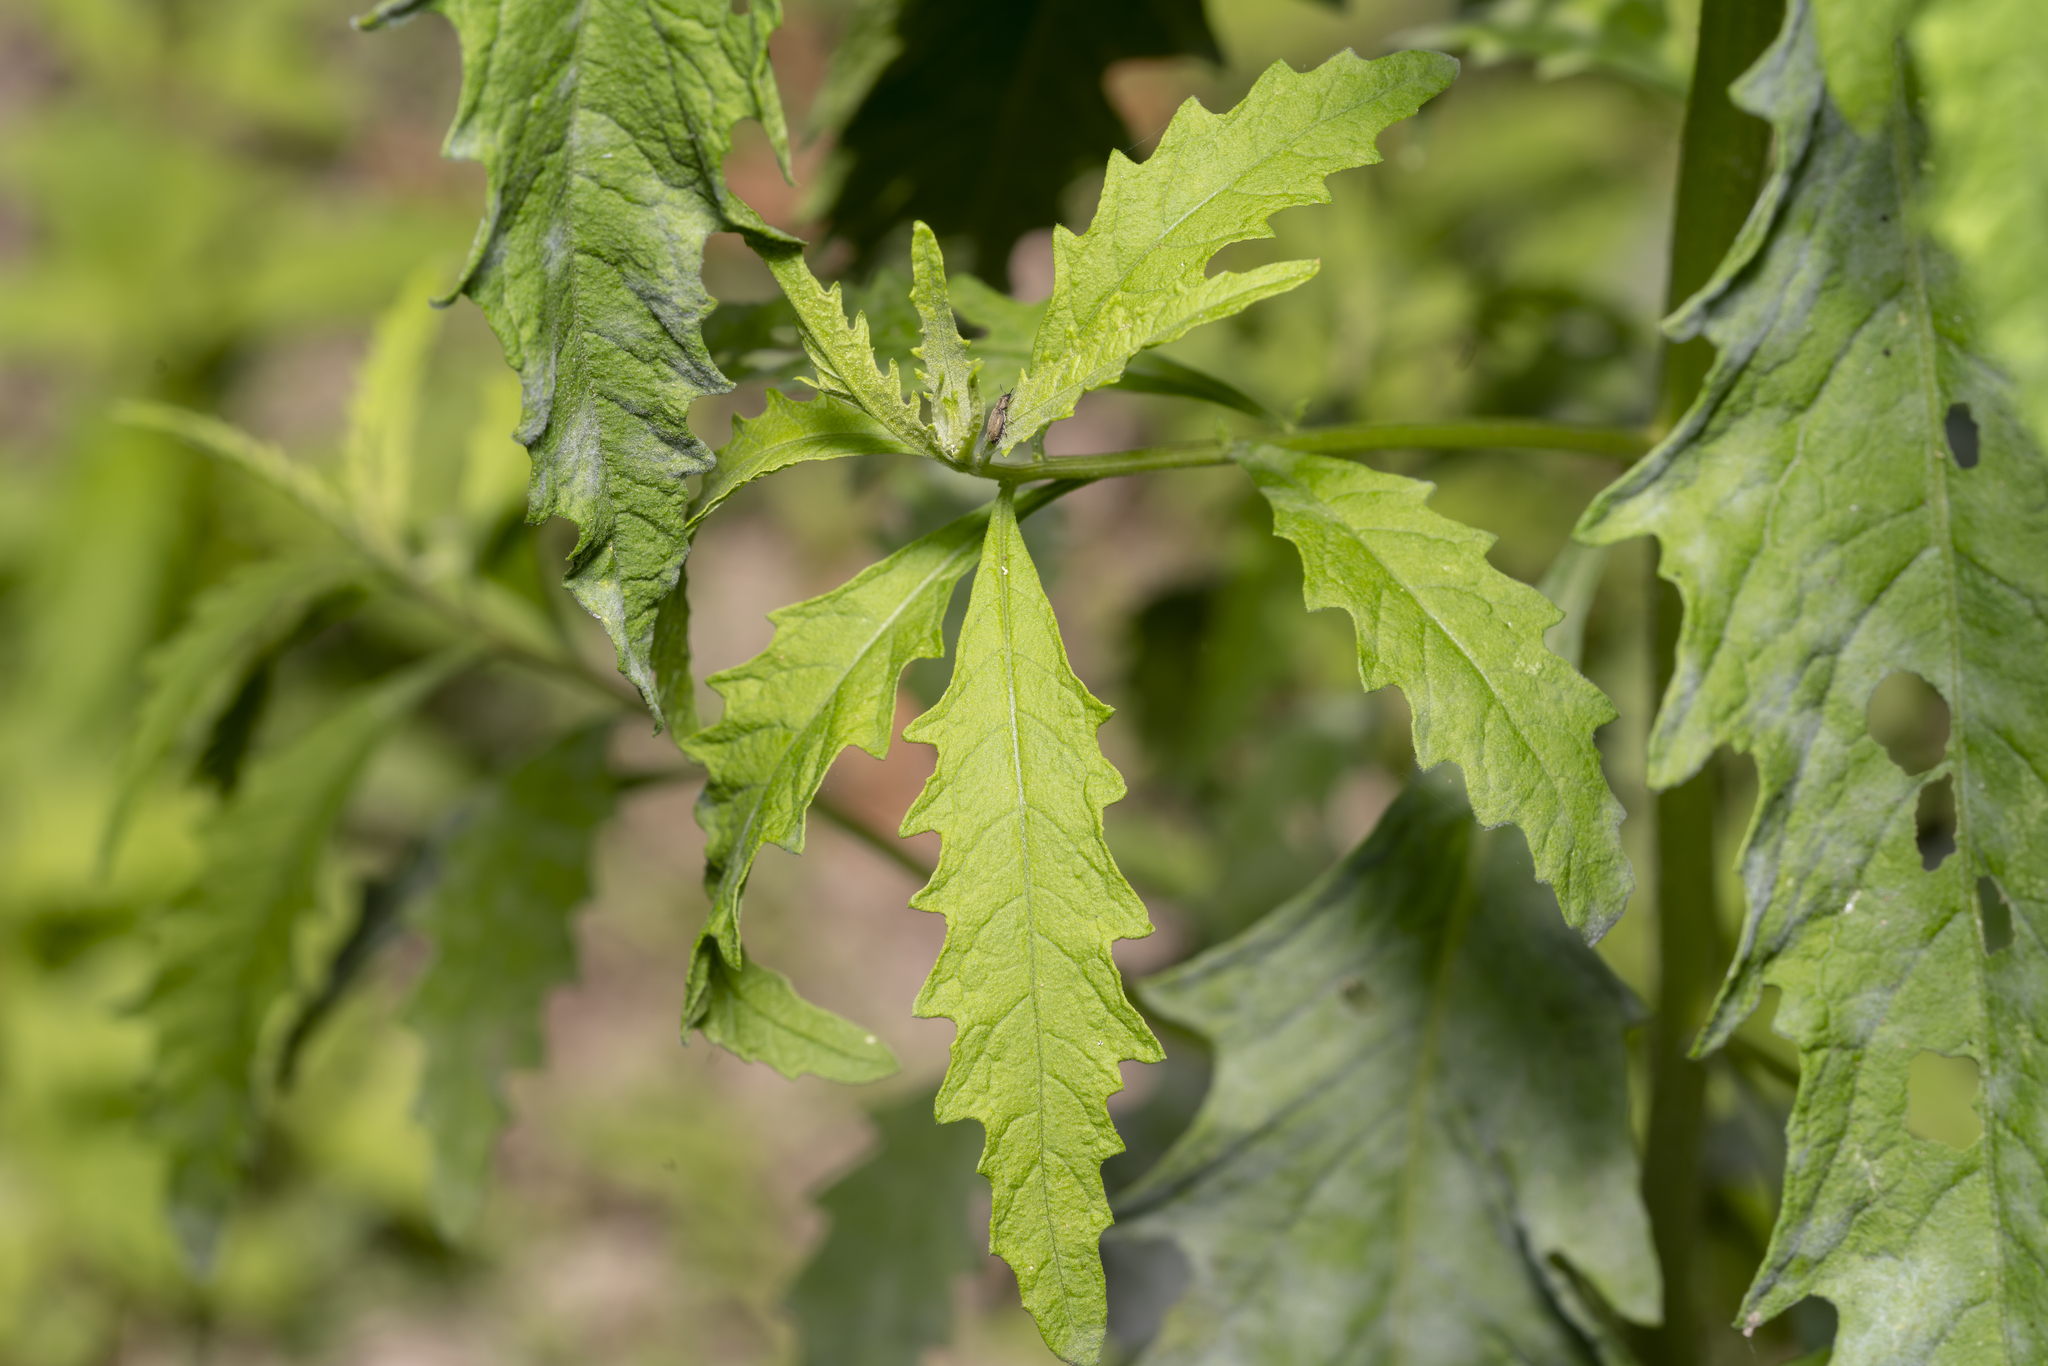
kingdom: Plantae
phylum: Tracheophyta
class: Magnoliopsida
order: Caryophyllales
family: Amaranthaceae
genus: Dysphania
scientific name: Dysphania ambrosioides
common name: Wormseed
